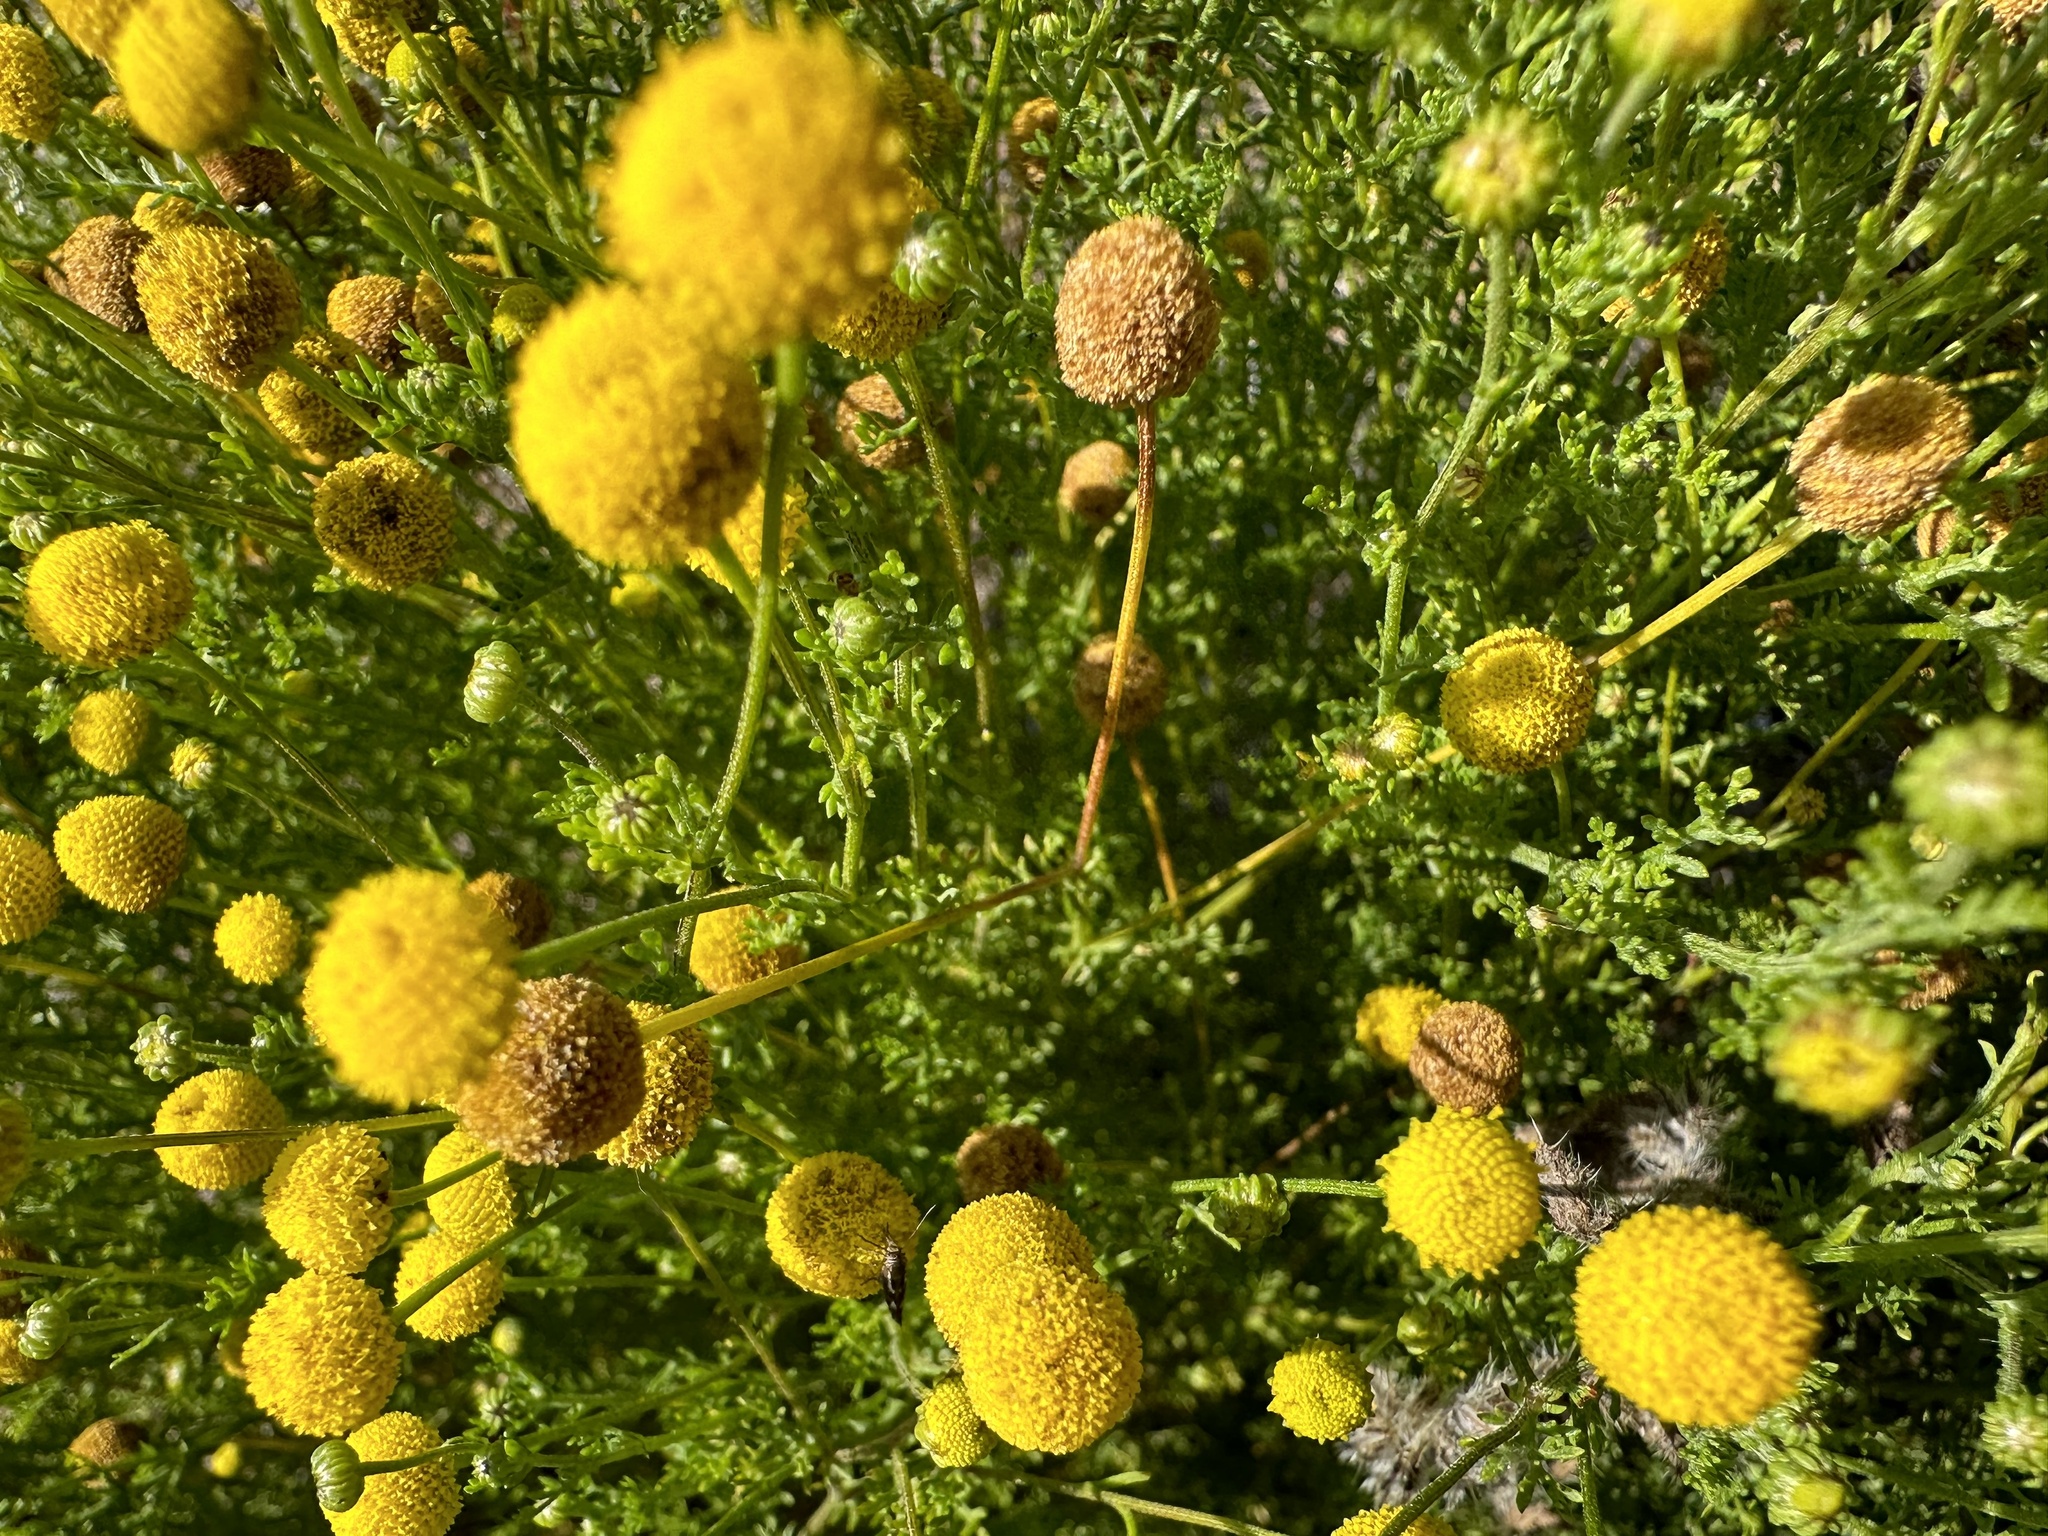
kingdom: Plantae
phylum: Tracheophyta
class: Magnoliopsida
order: Asterales
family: Asteraceae
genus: Oncosiphon
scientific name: Oncosiphon pilulifer
